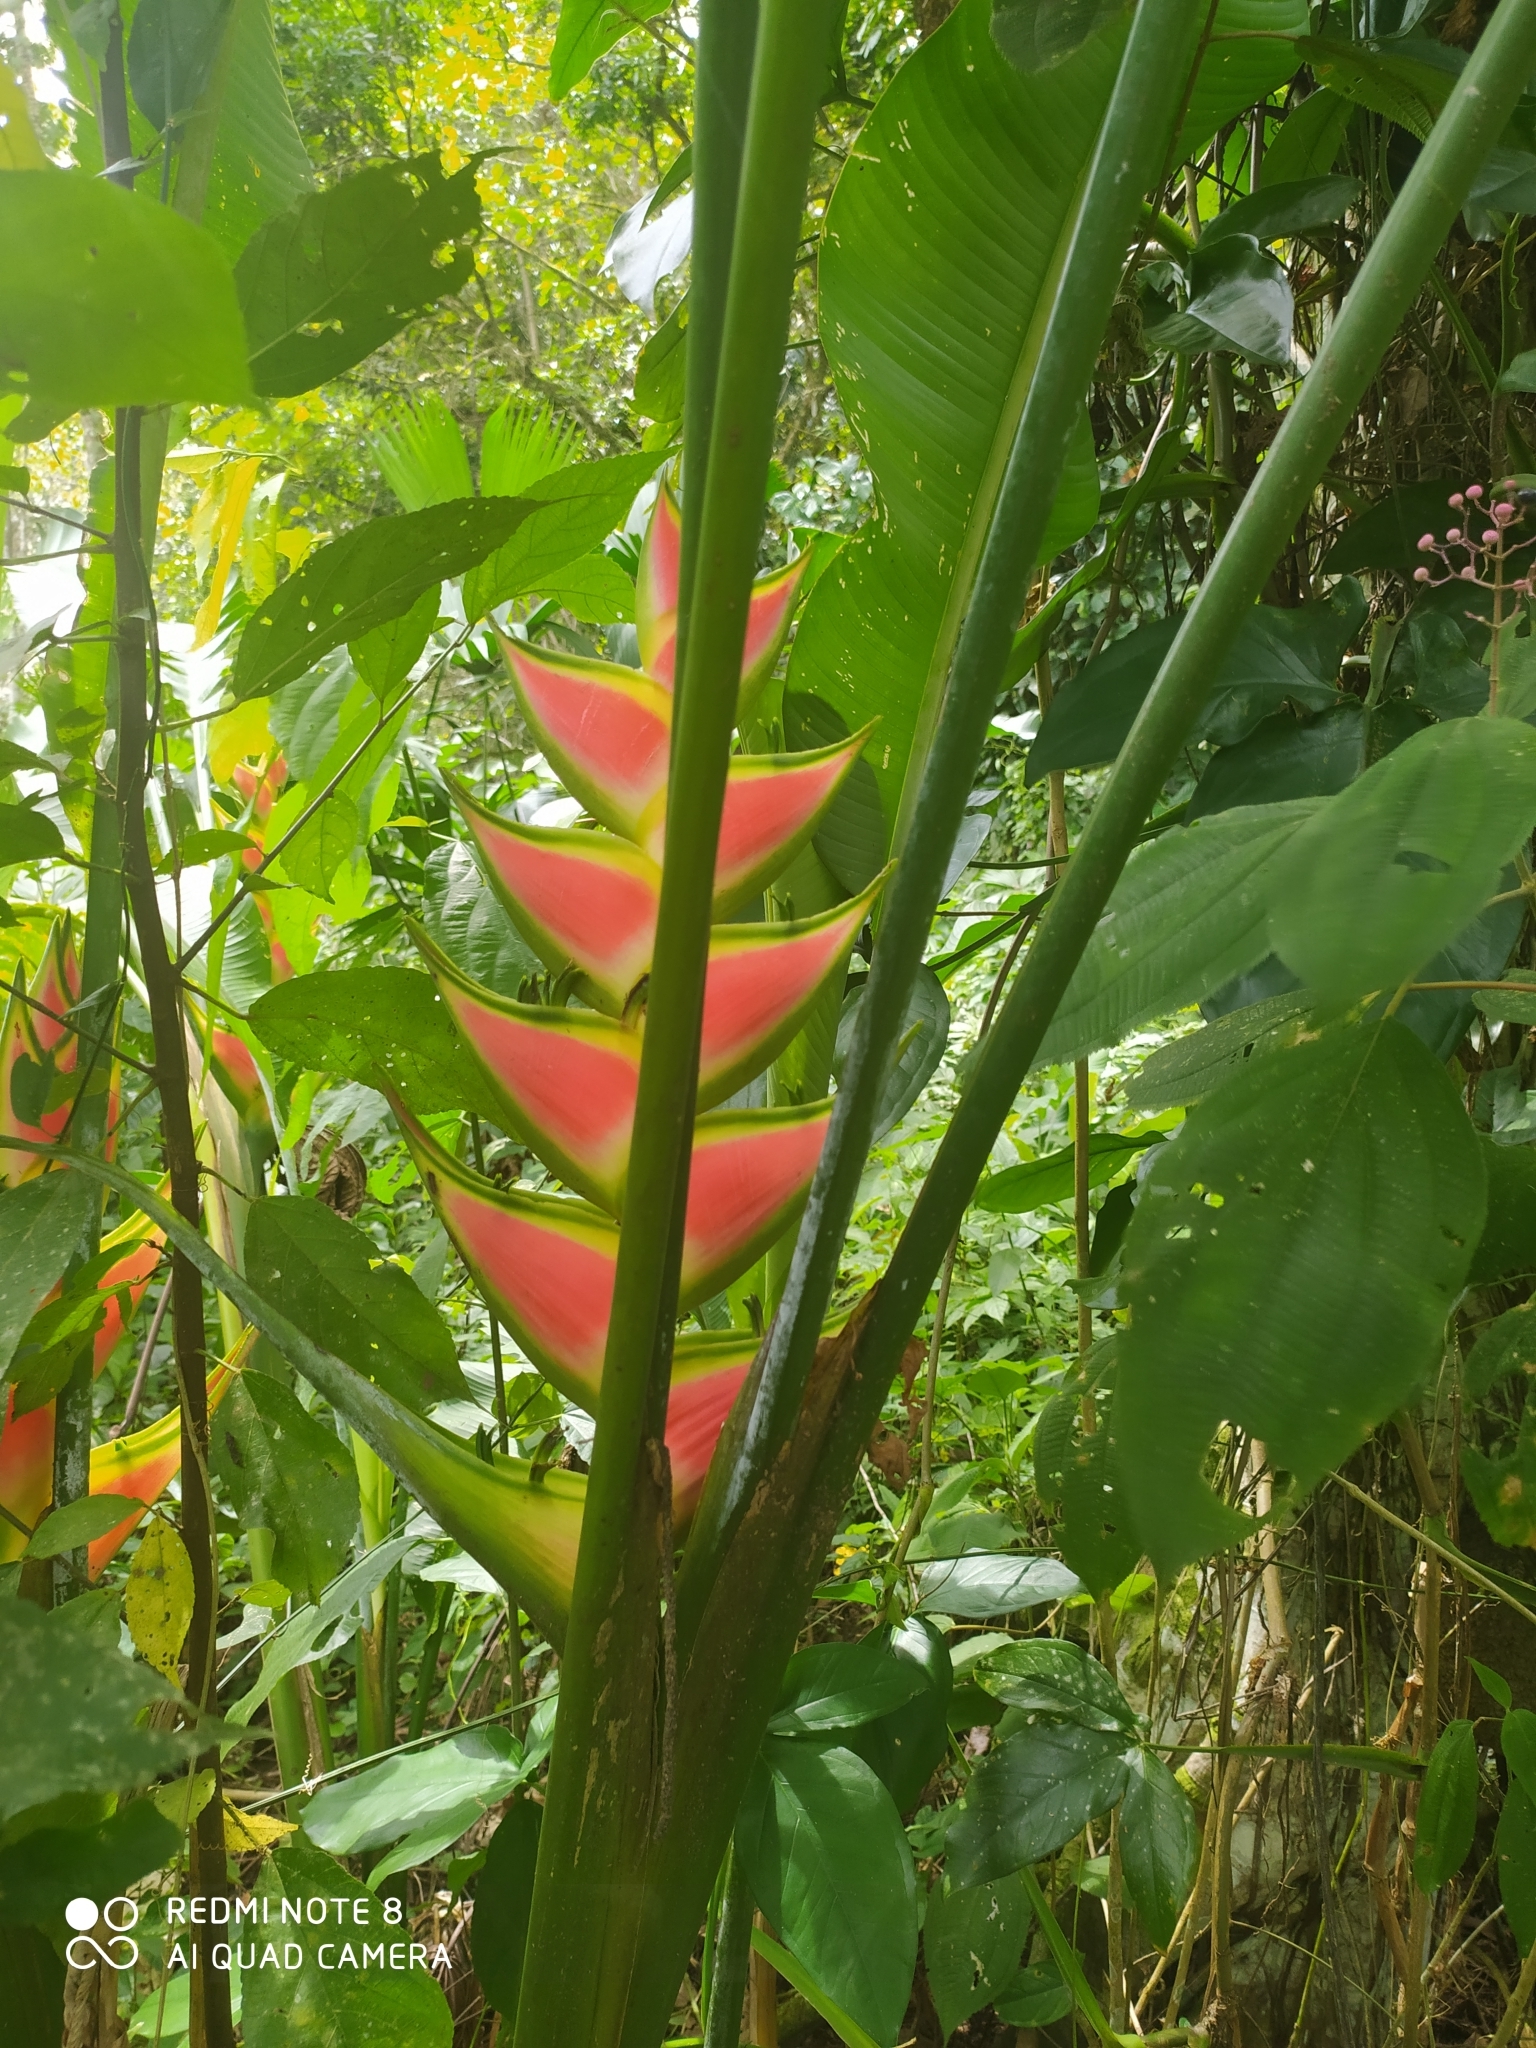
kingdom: Plantae
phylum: Tracheophyta
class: Liliopsida
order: Zingiberales
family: Heliconiaceae
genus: Heliconia
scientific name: Heliconia wagneriana
